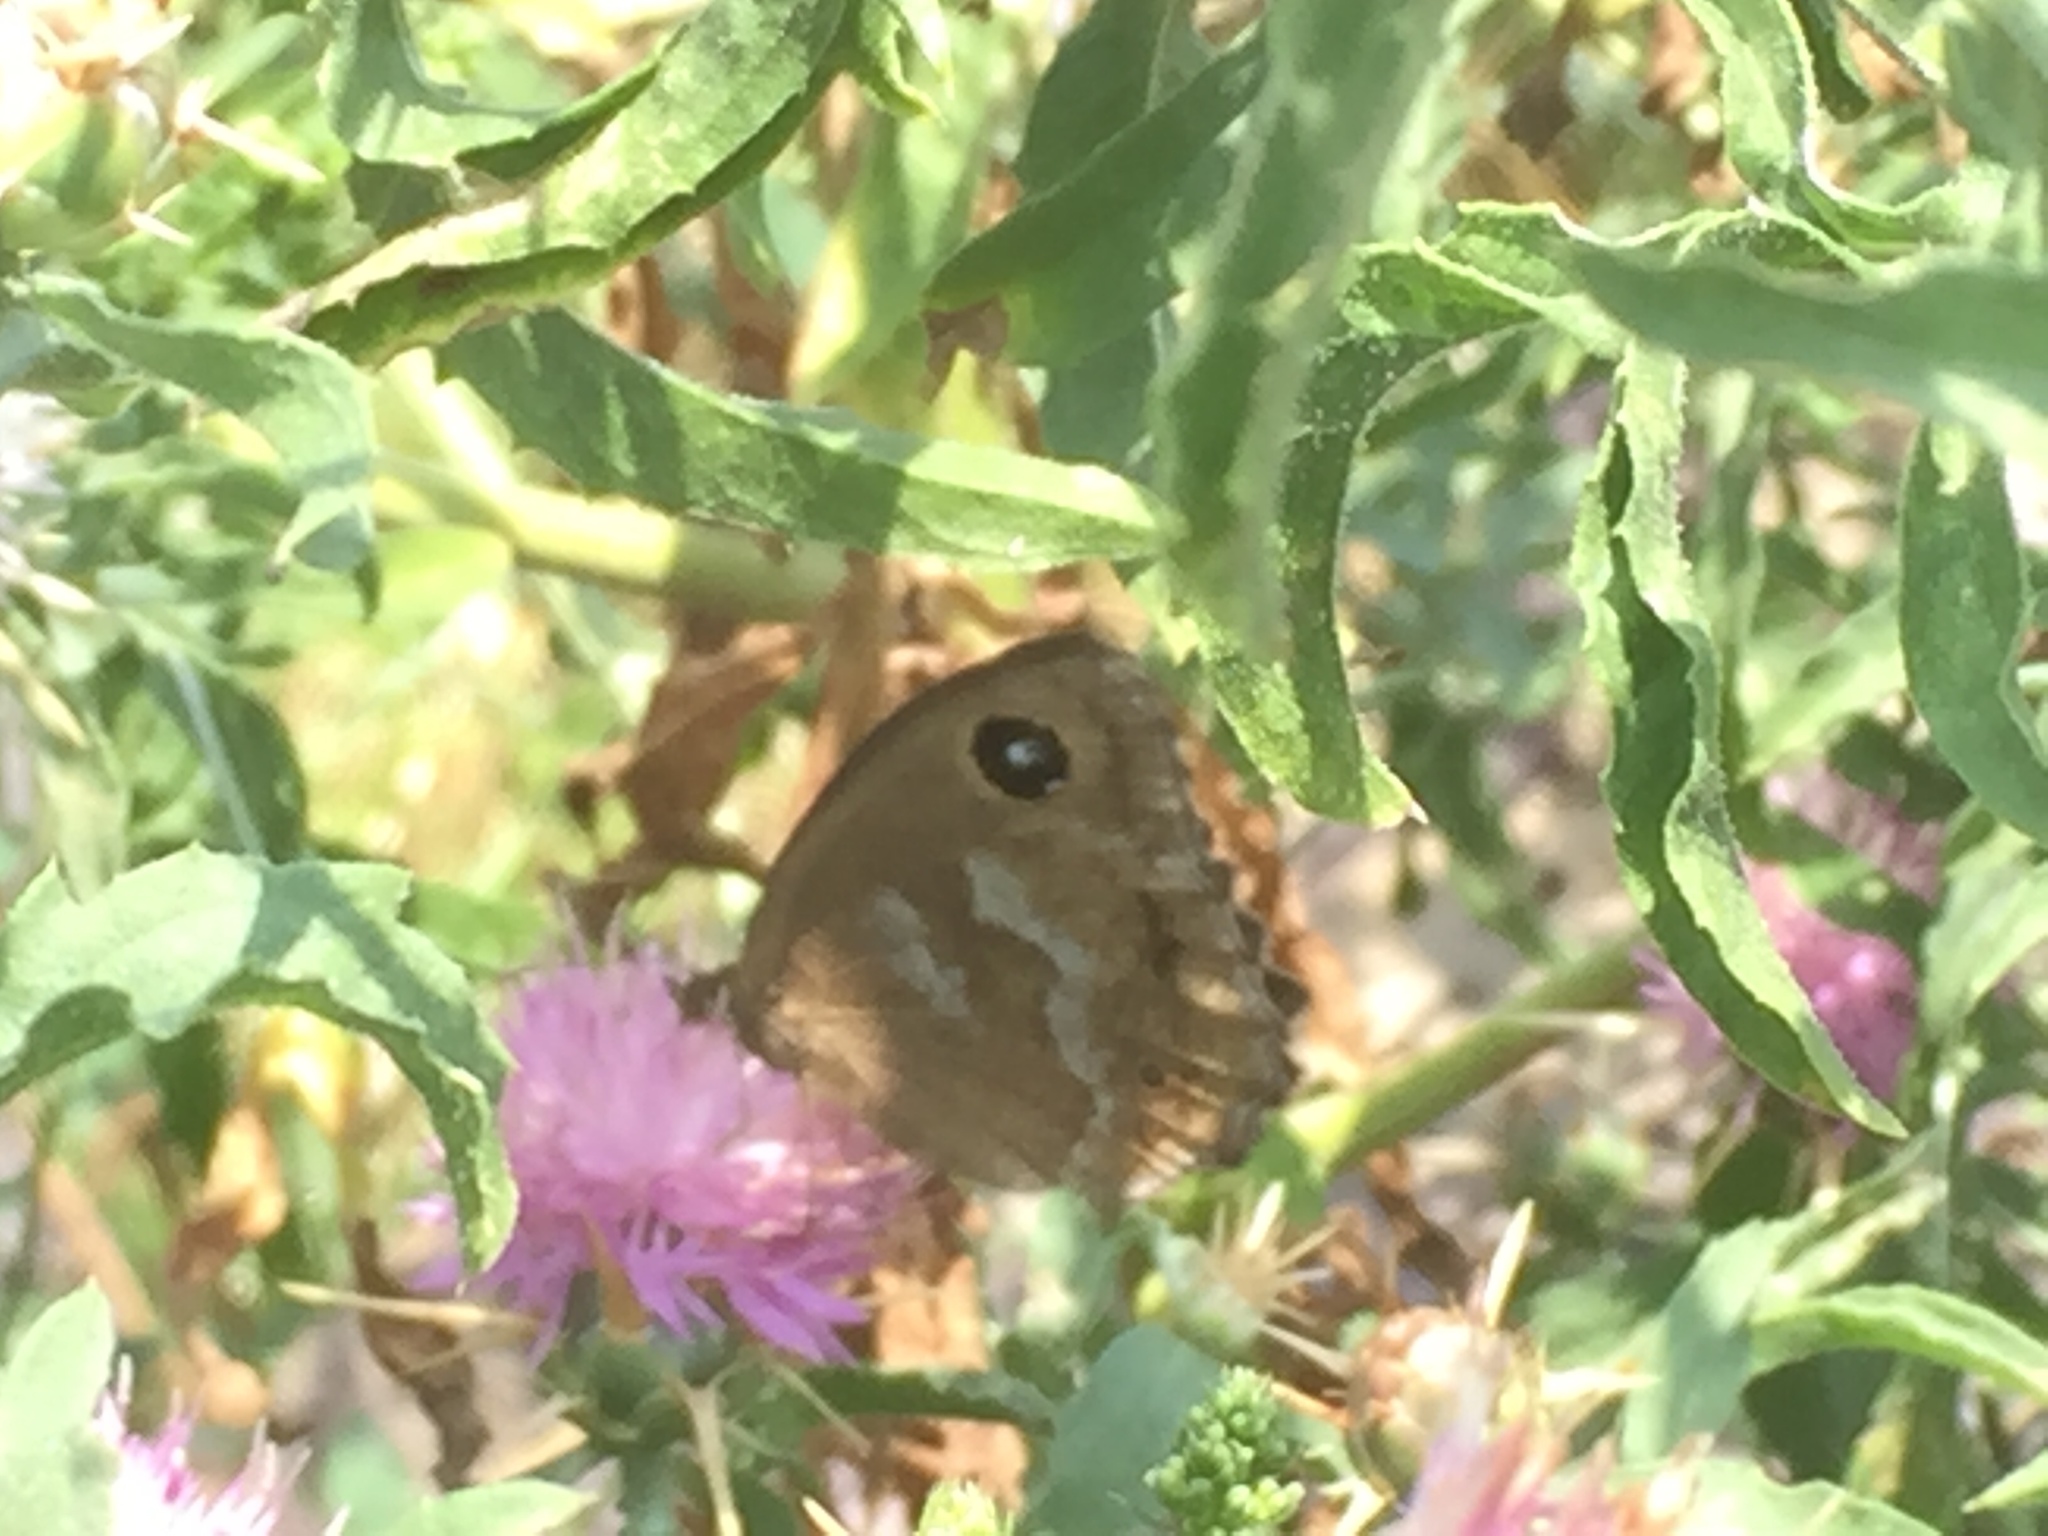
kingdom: Animalia
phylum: Arthropoda
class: Insecta
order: Lepidoptera
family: Nymphalidae
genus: Minois
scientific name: Minois dryas
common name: Dryad
